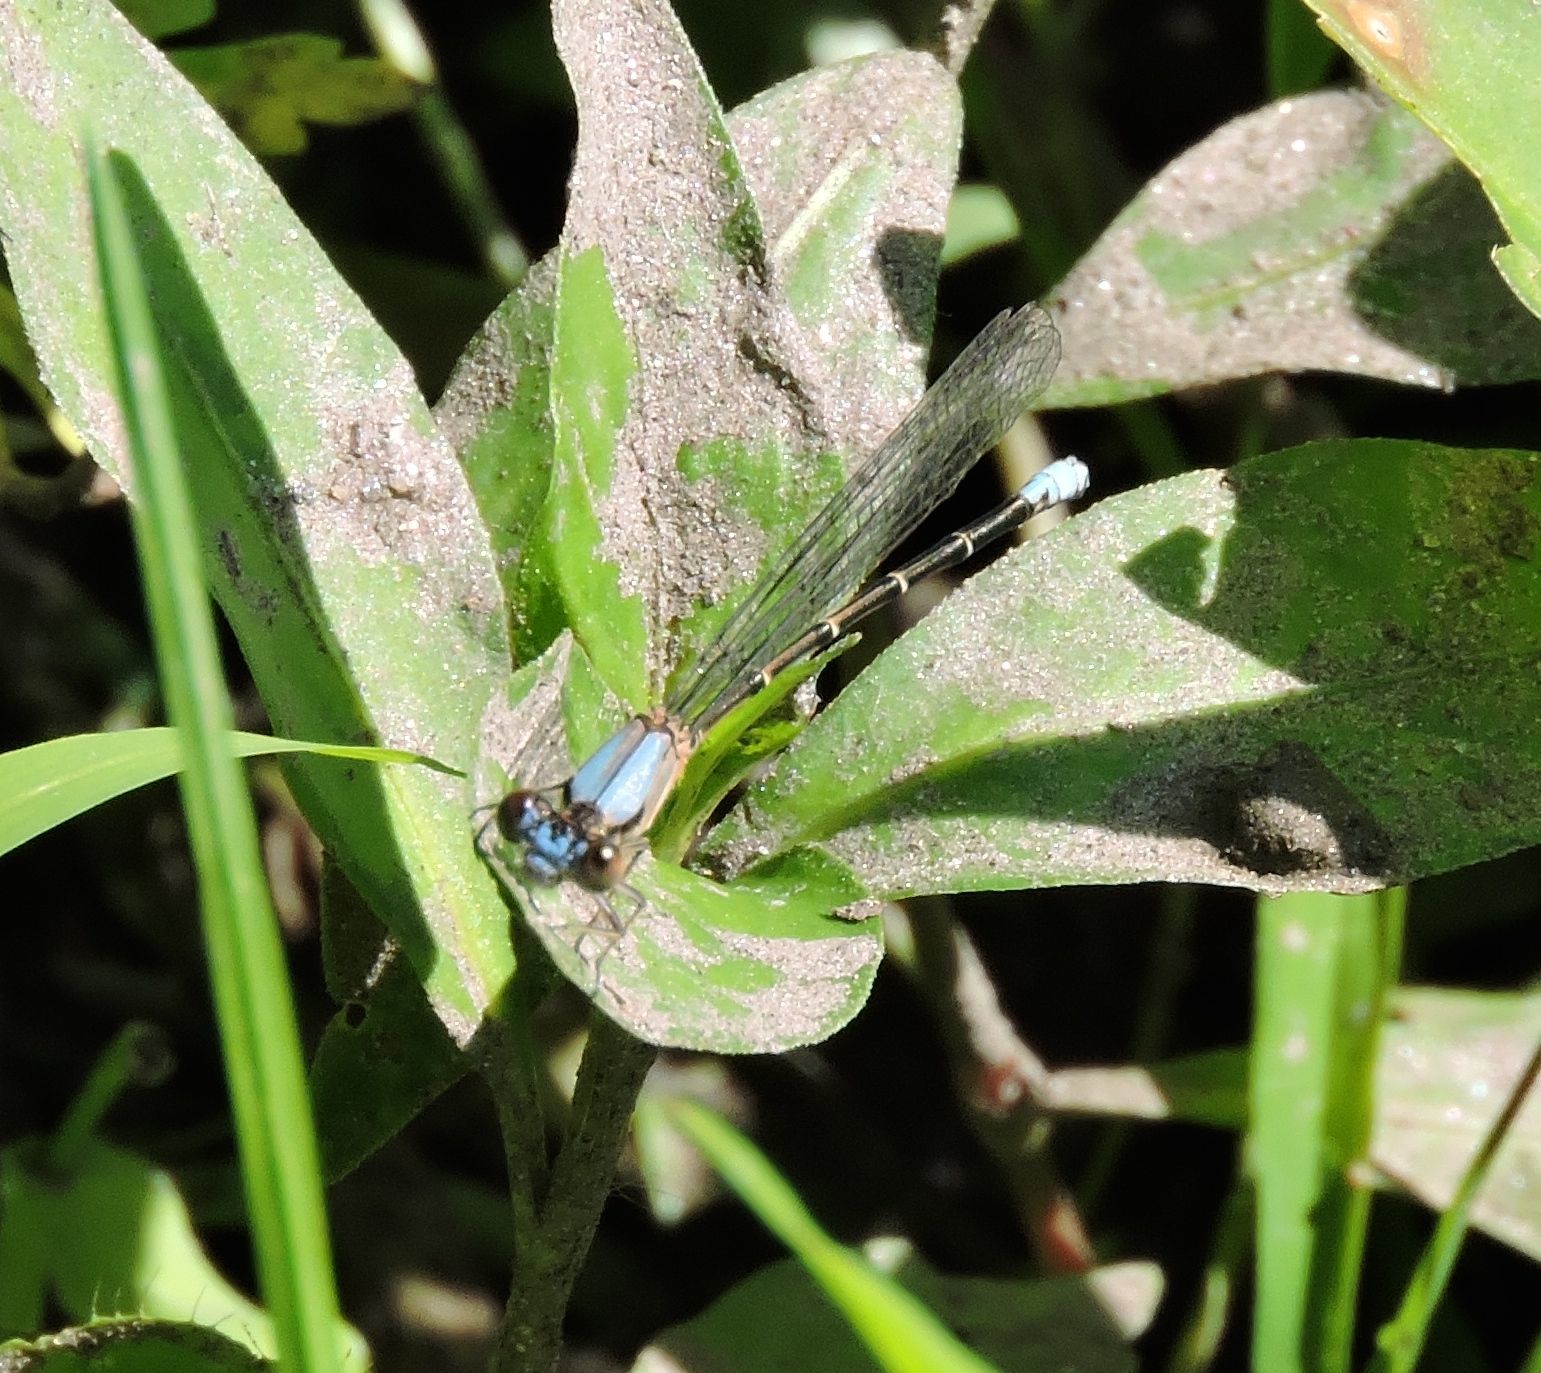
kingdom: Animalia
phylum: Arthropoda
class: Insecta
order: Odonata
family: Coenagrionidae
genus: Argia
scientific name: Argia apicalis
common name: Blue-fronted dancer
